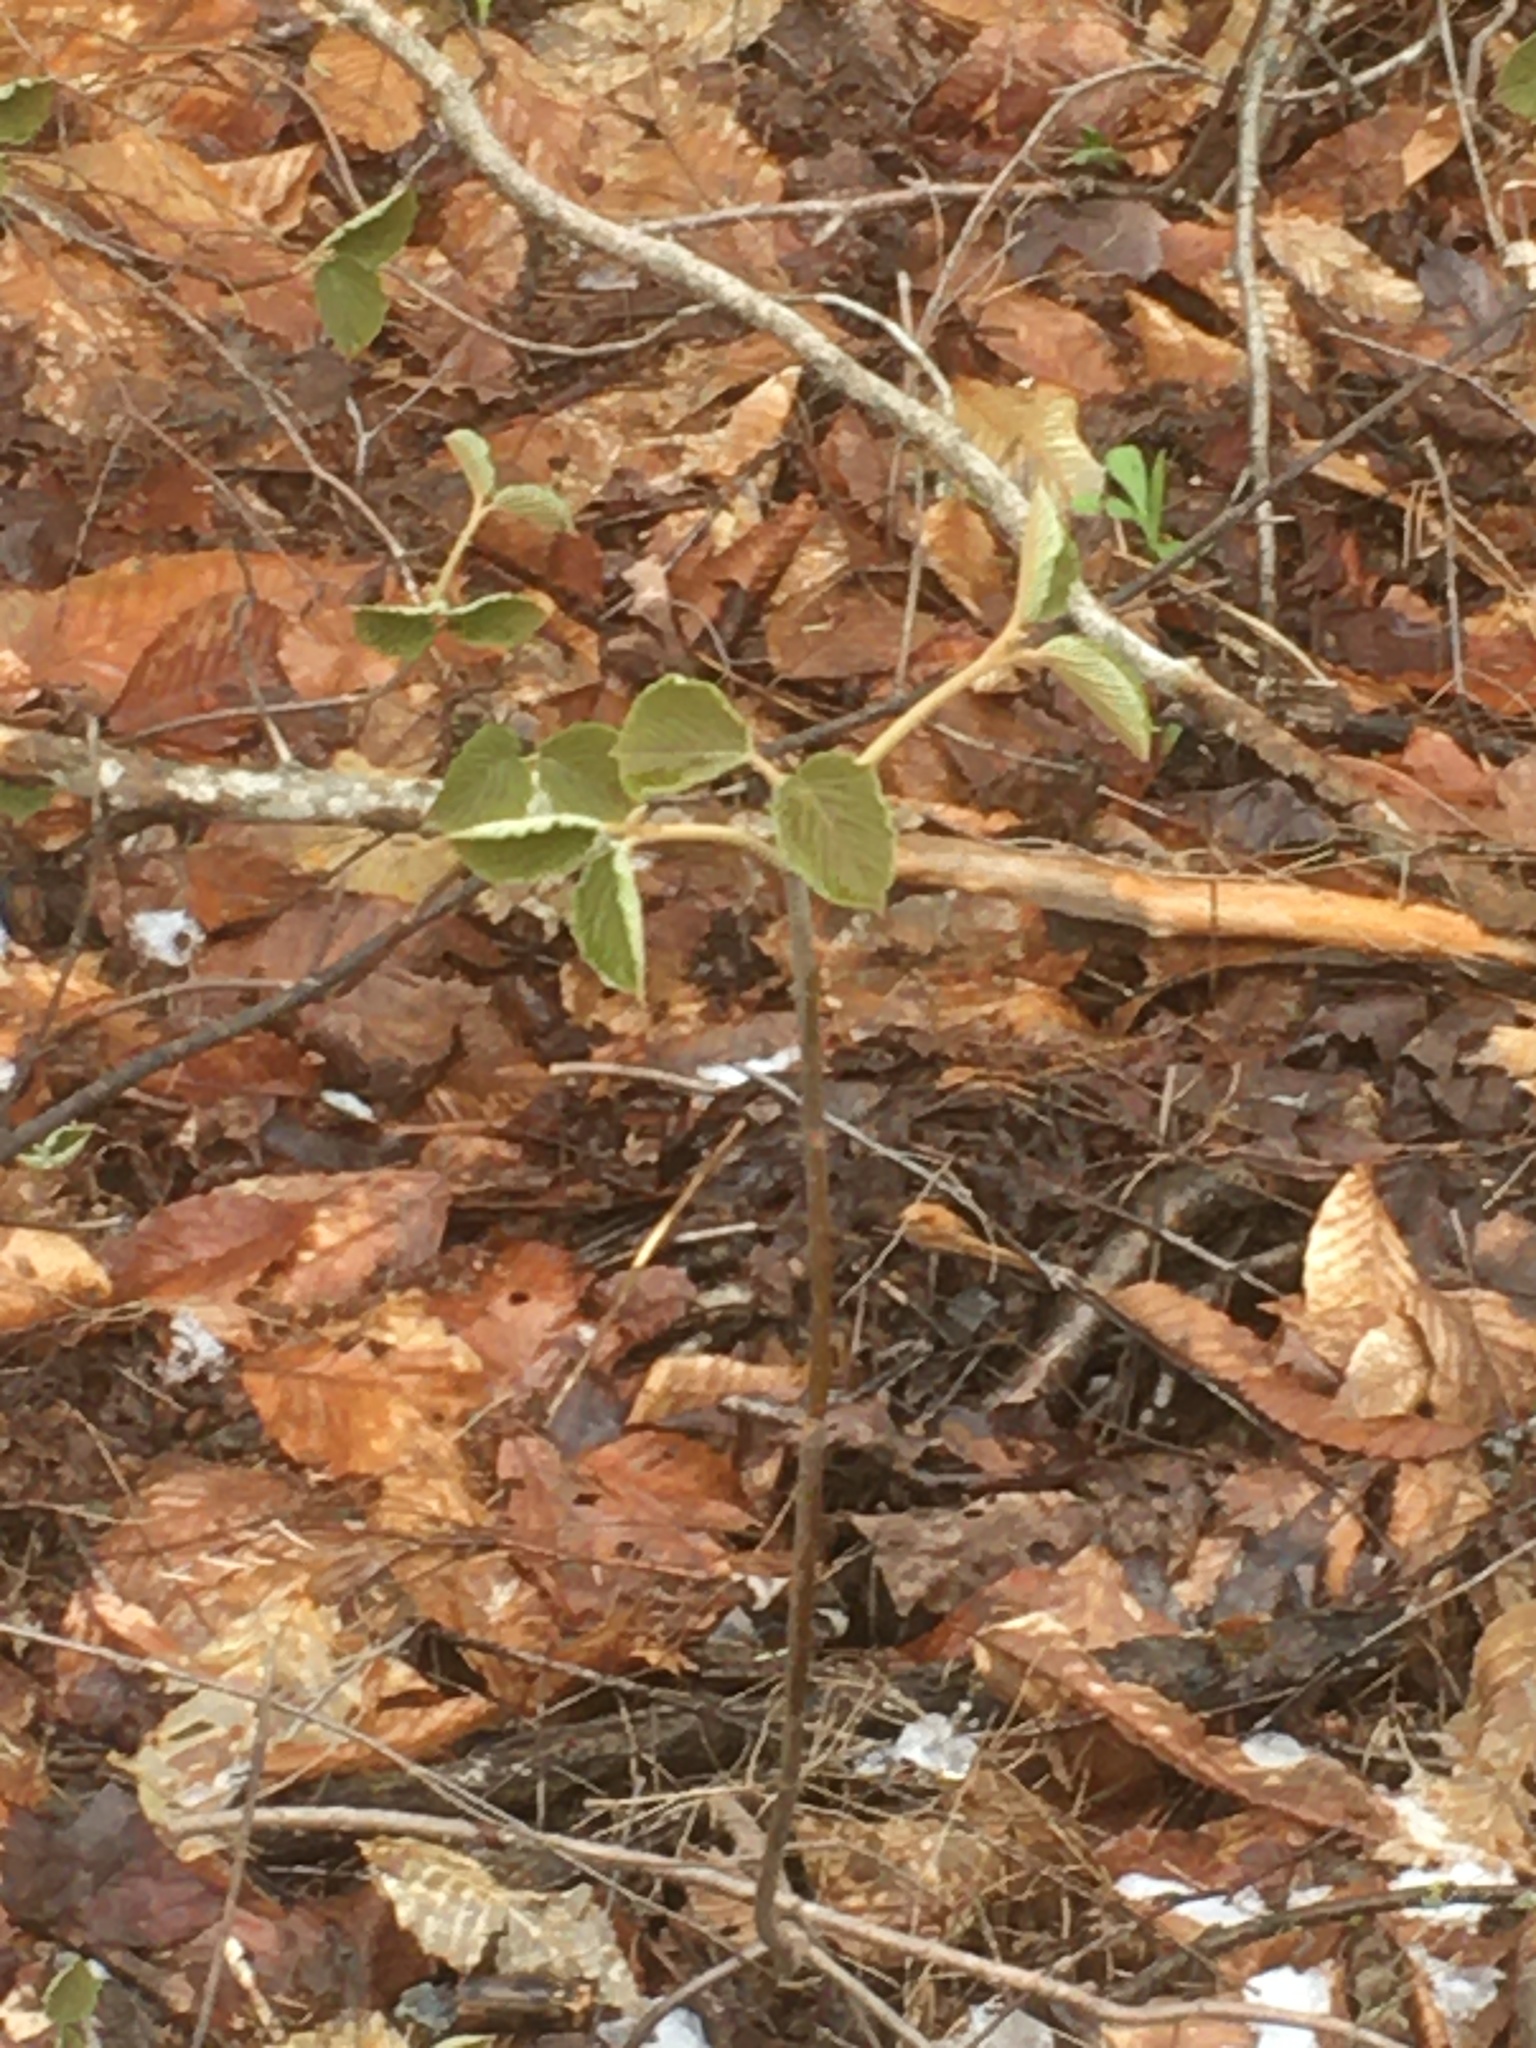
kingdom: Plantae
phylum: Tracheophyta
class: Magnoliopsida
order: Dipsacales
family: Viburnaceae
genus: Viburnum
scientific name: Viburnum lantanoides
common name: Hobblebush
